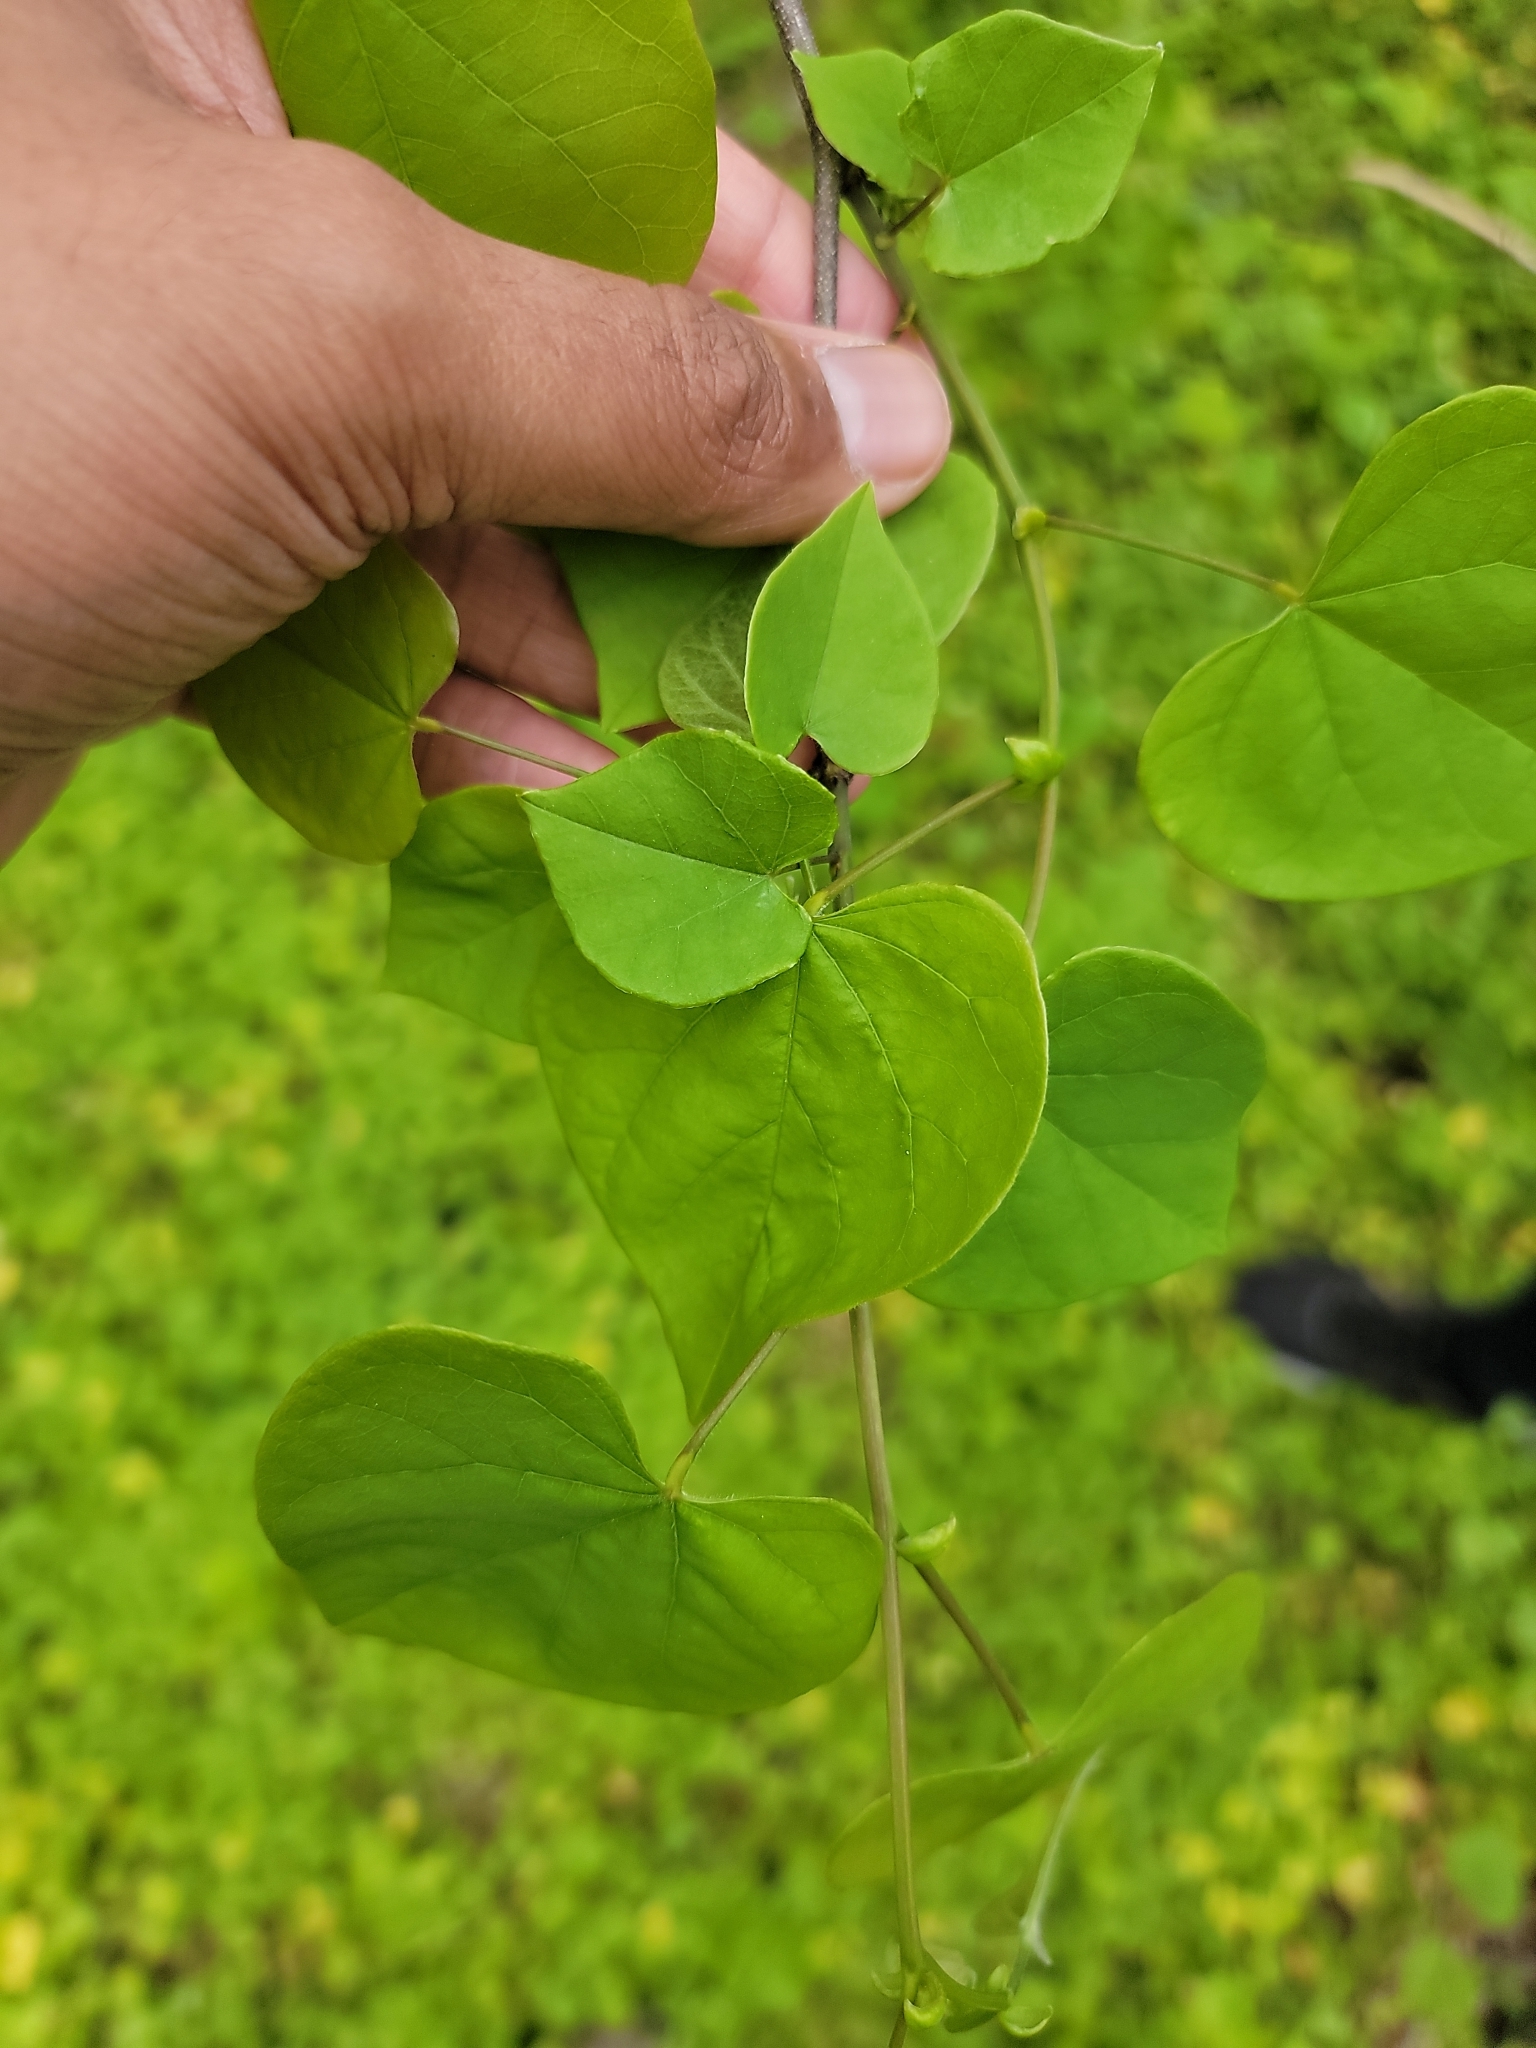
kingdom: Plantae
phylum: Tracheophyta
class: Magnoliopsida
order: Fabales
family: Fabaceae
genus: Cercis
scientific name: Cercis canadensis
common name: Eastern redbud
